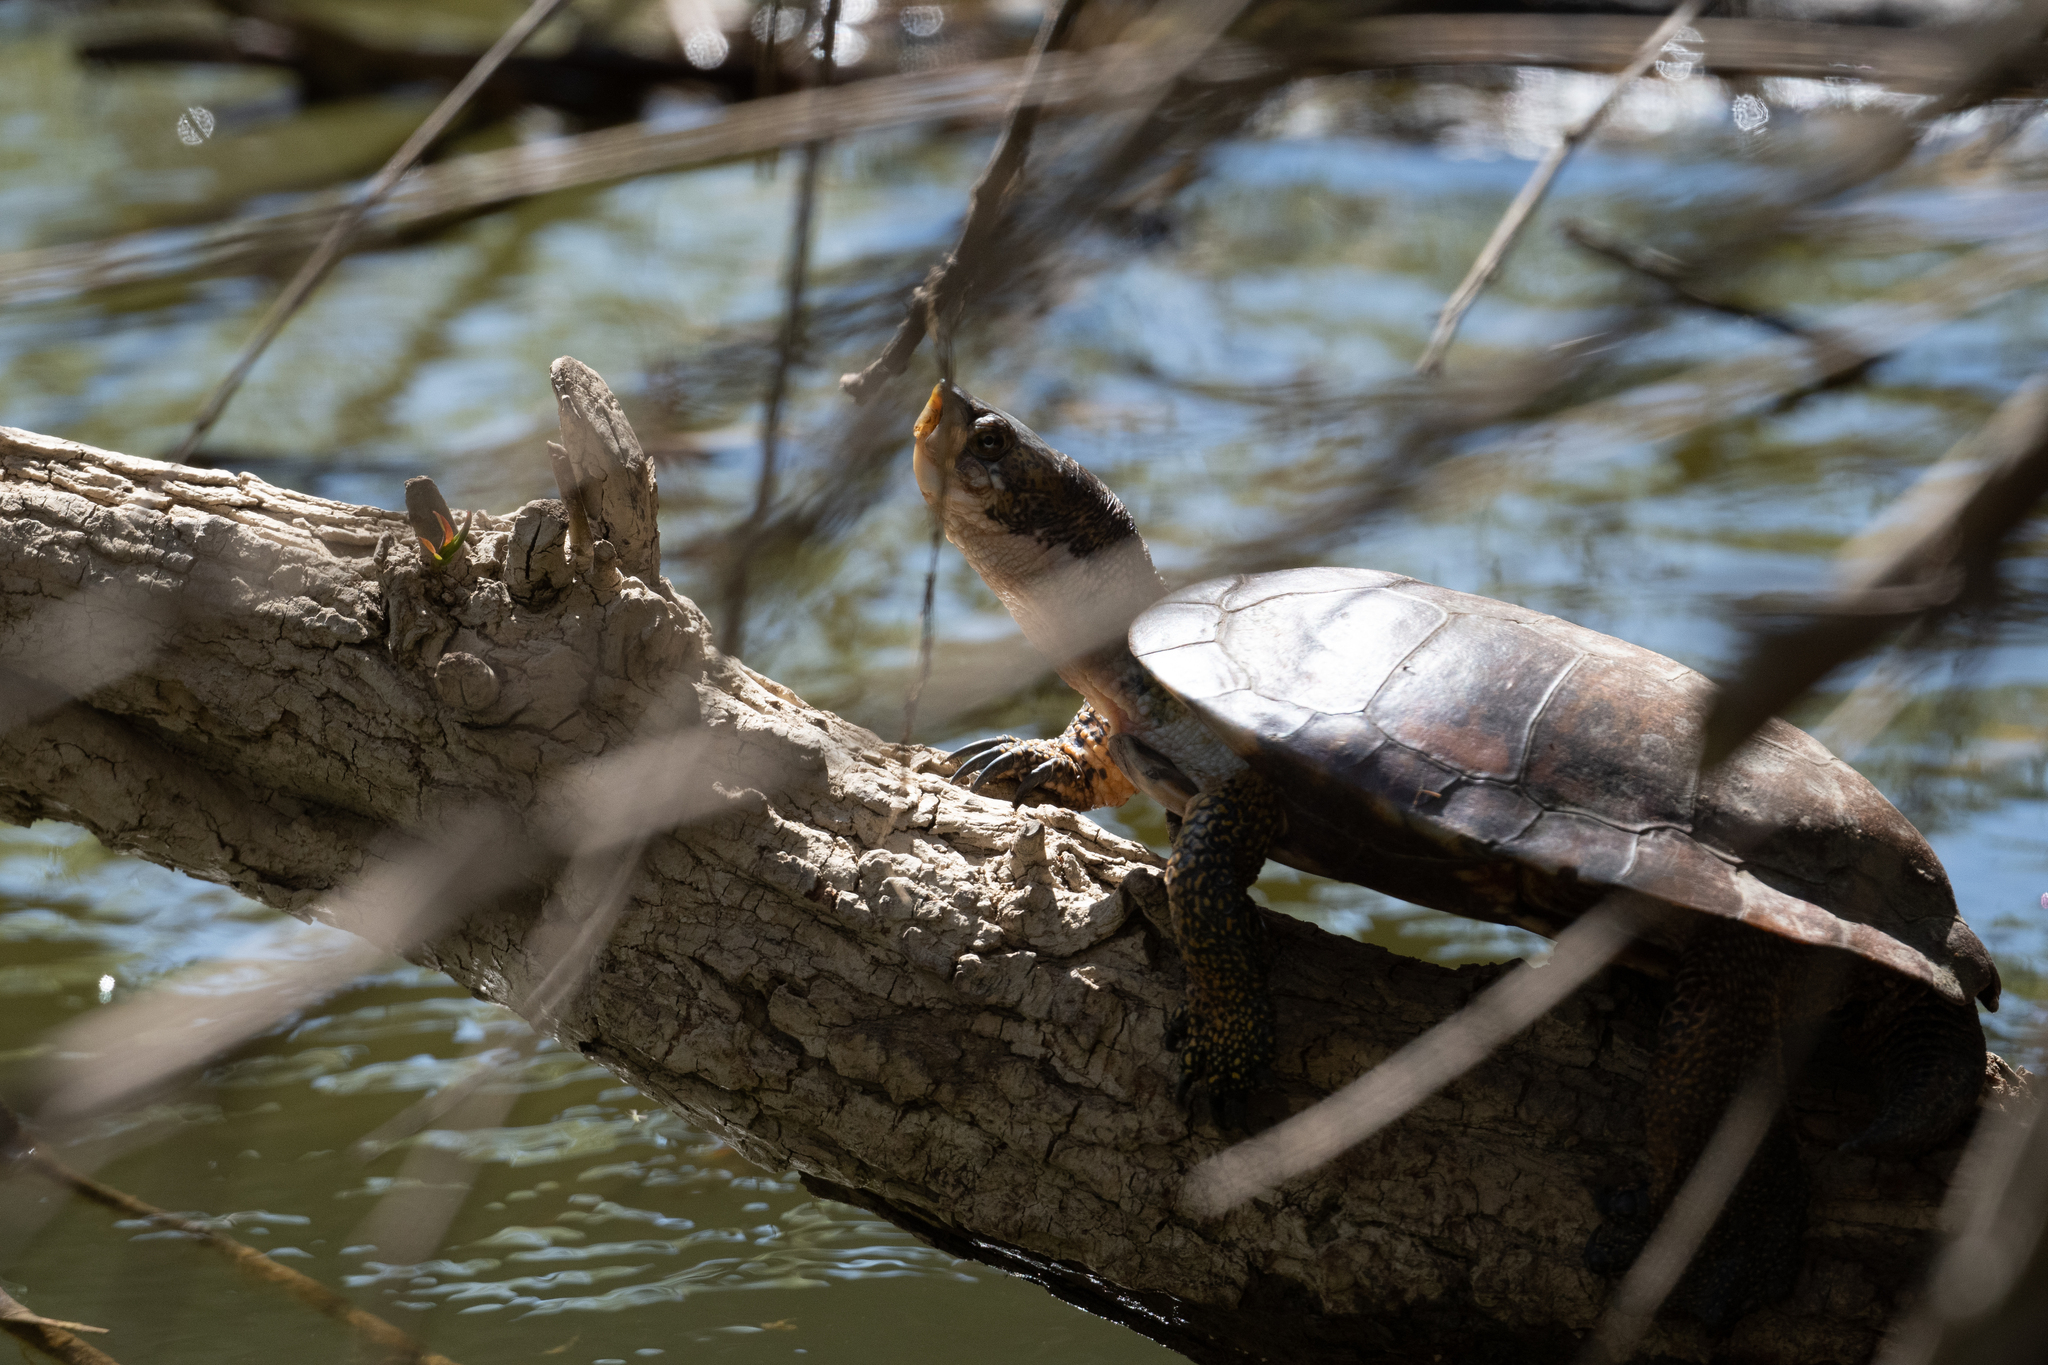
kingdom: Animalia
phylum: Chordata
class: Testudines
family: Emydidae
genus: Actinemys
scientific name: Actinemys marmorata
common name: Western pond turtle
